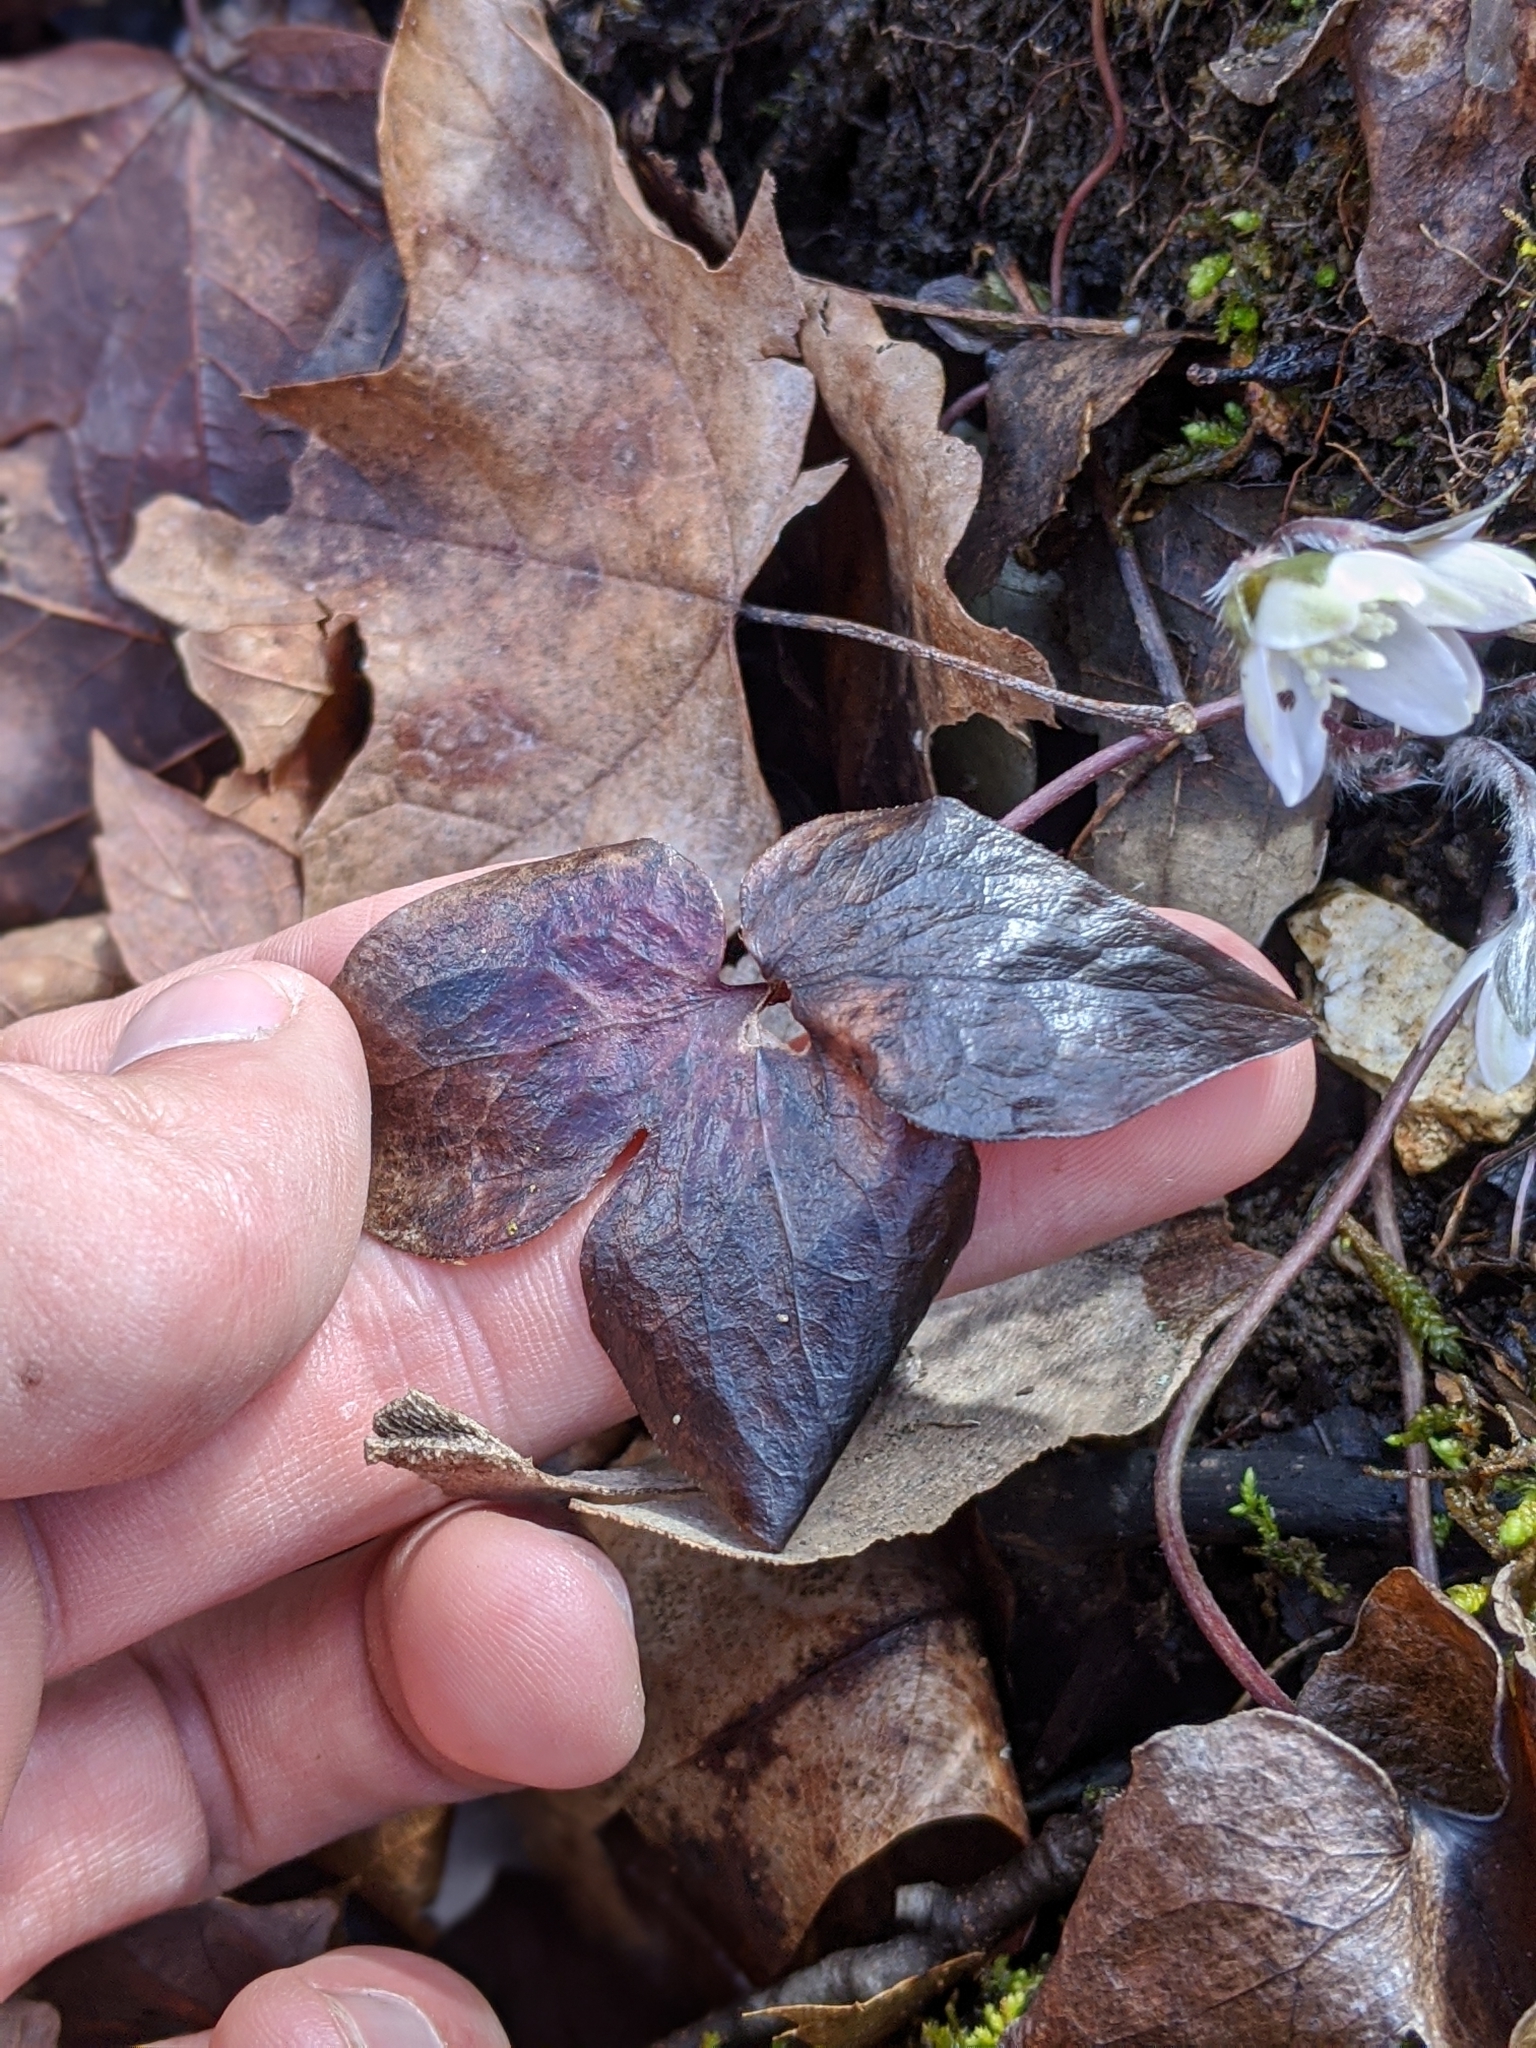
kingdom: Plantae
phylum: Tracheophyta
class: Magnoliopsida
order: Ranunculales
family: Ranunculaceae
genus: Hepatica
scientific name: Hepatica acutiloba
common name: Sharp-lobed hepatica
